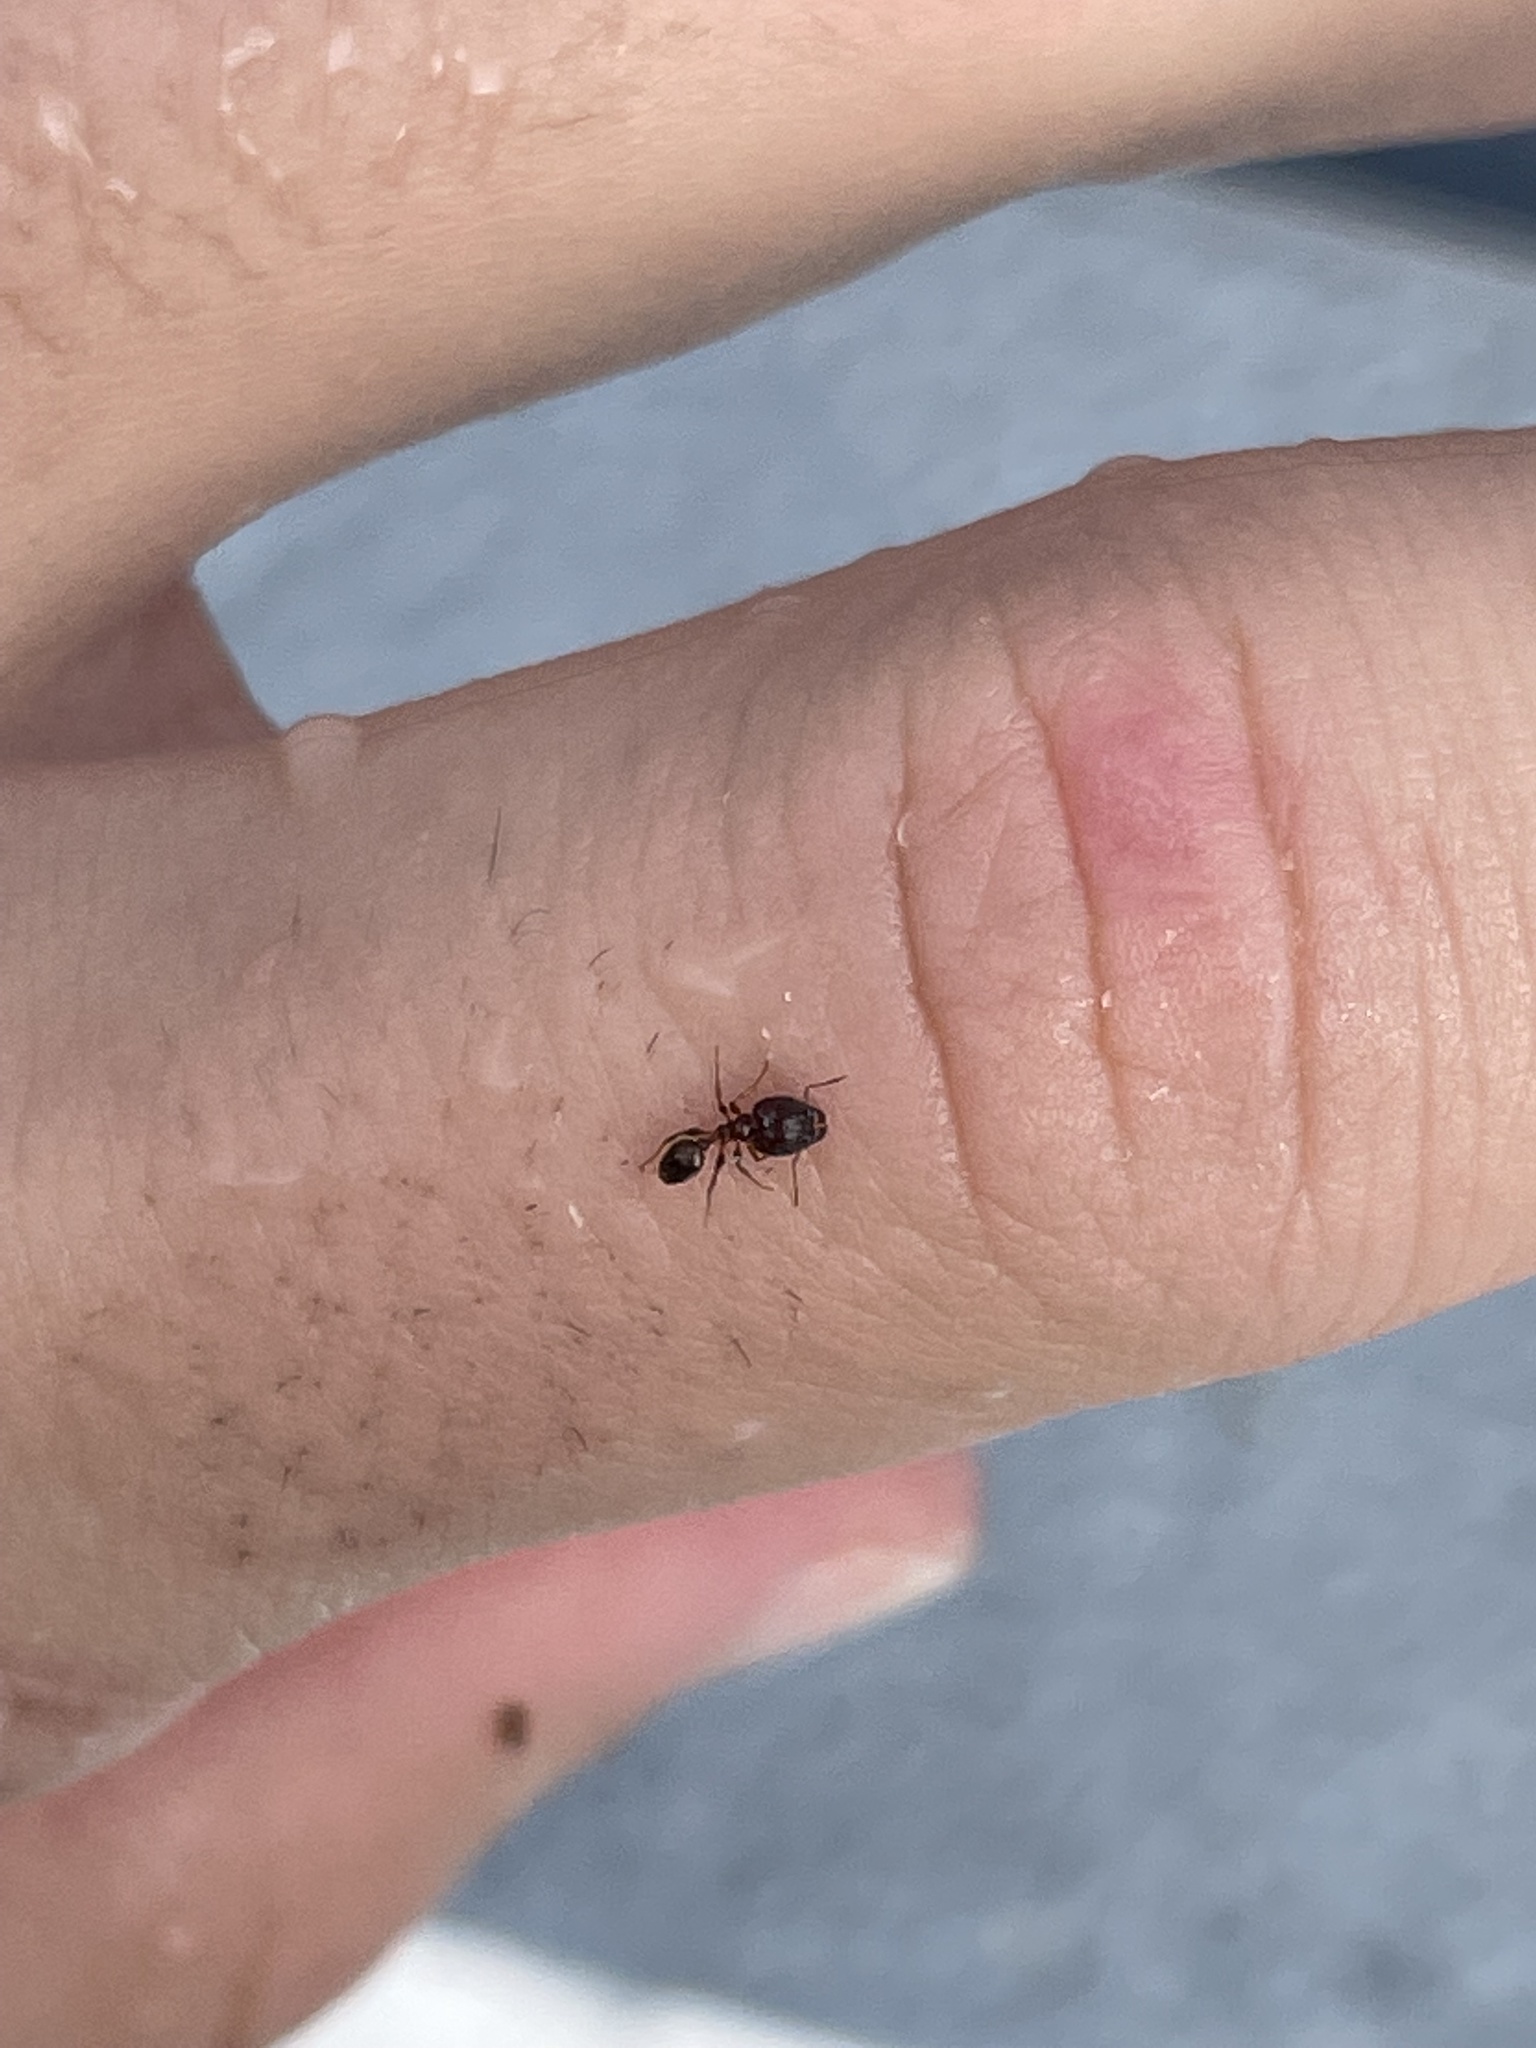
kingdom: Animalia
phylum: Arthropoda
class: Insecta
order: Hymenoptera
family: Formicidae
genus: Pheidole
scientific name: Pheidole megacephala
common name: Bigheaded ant
